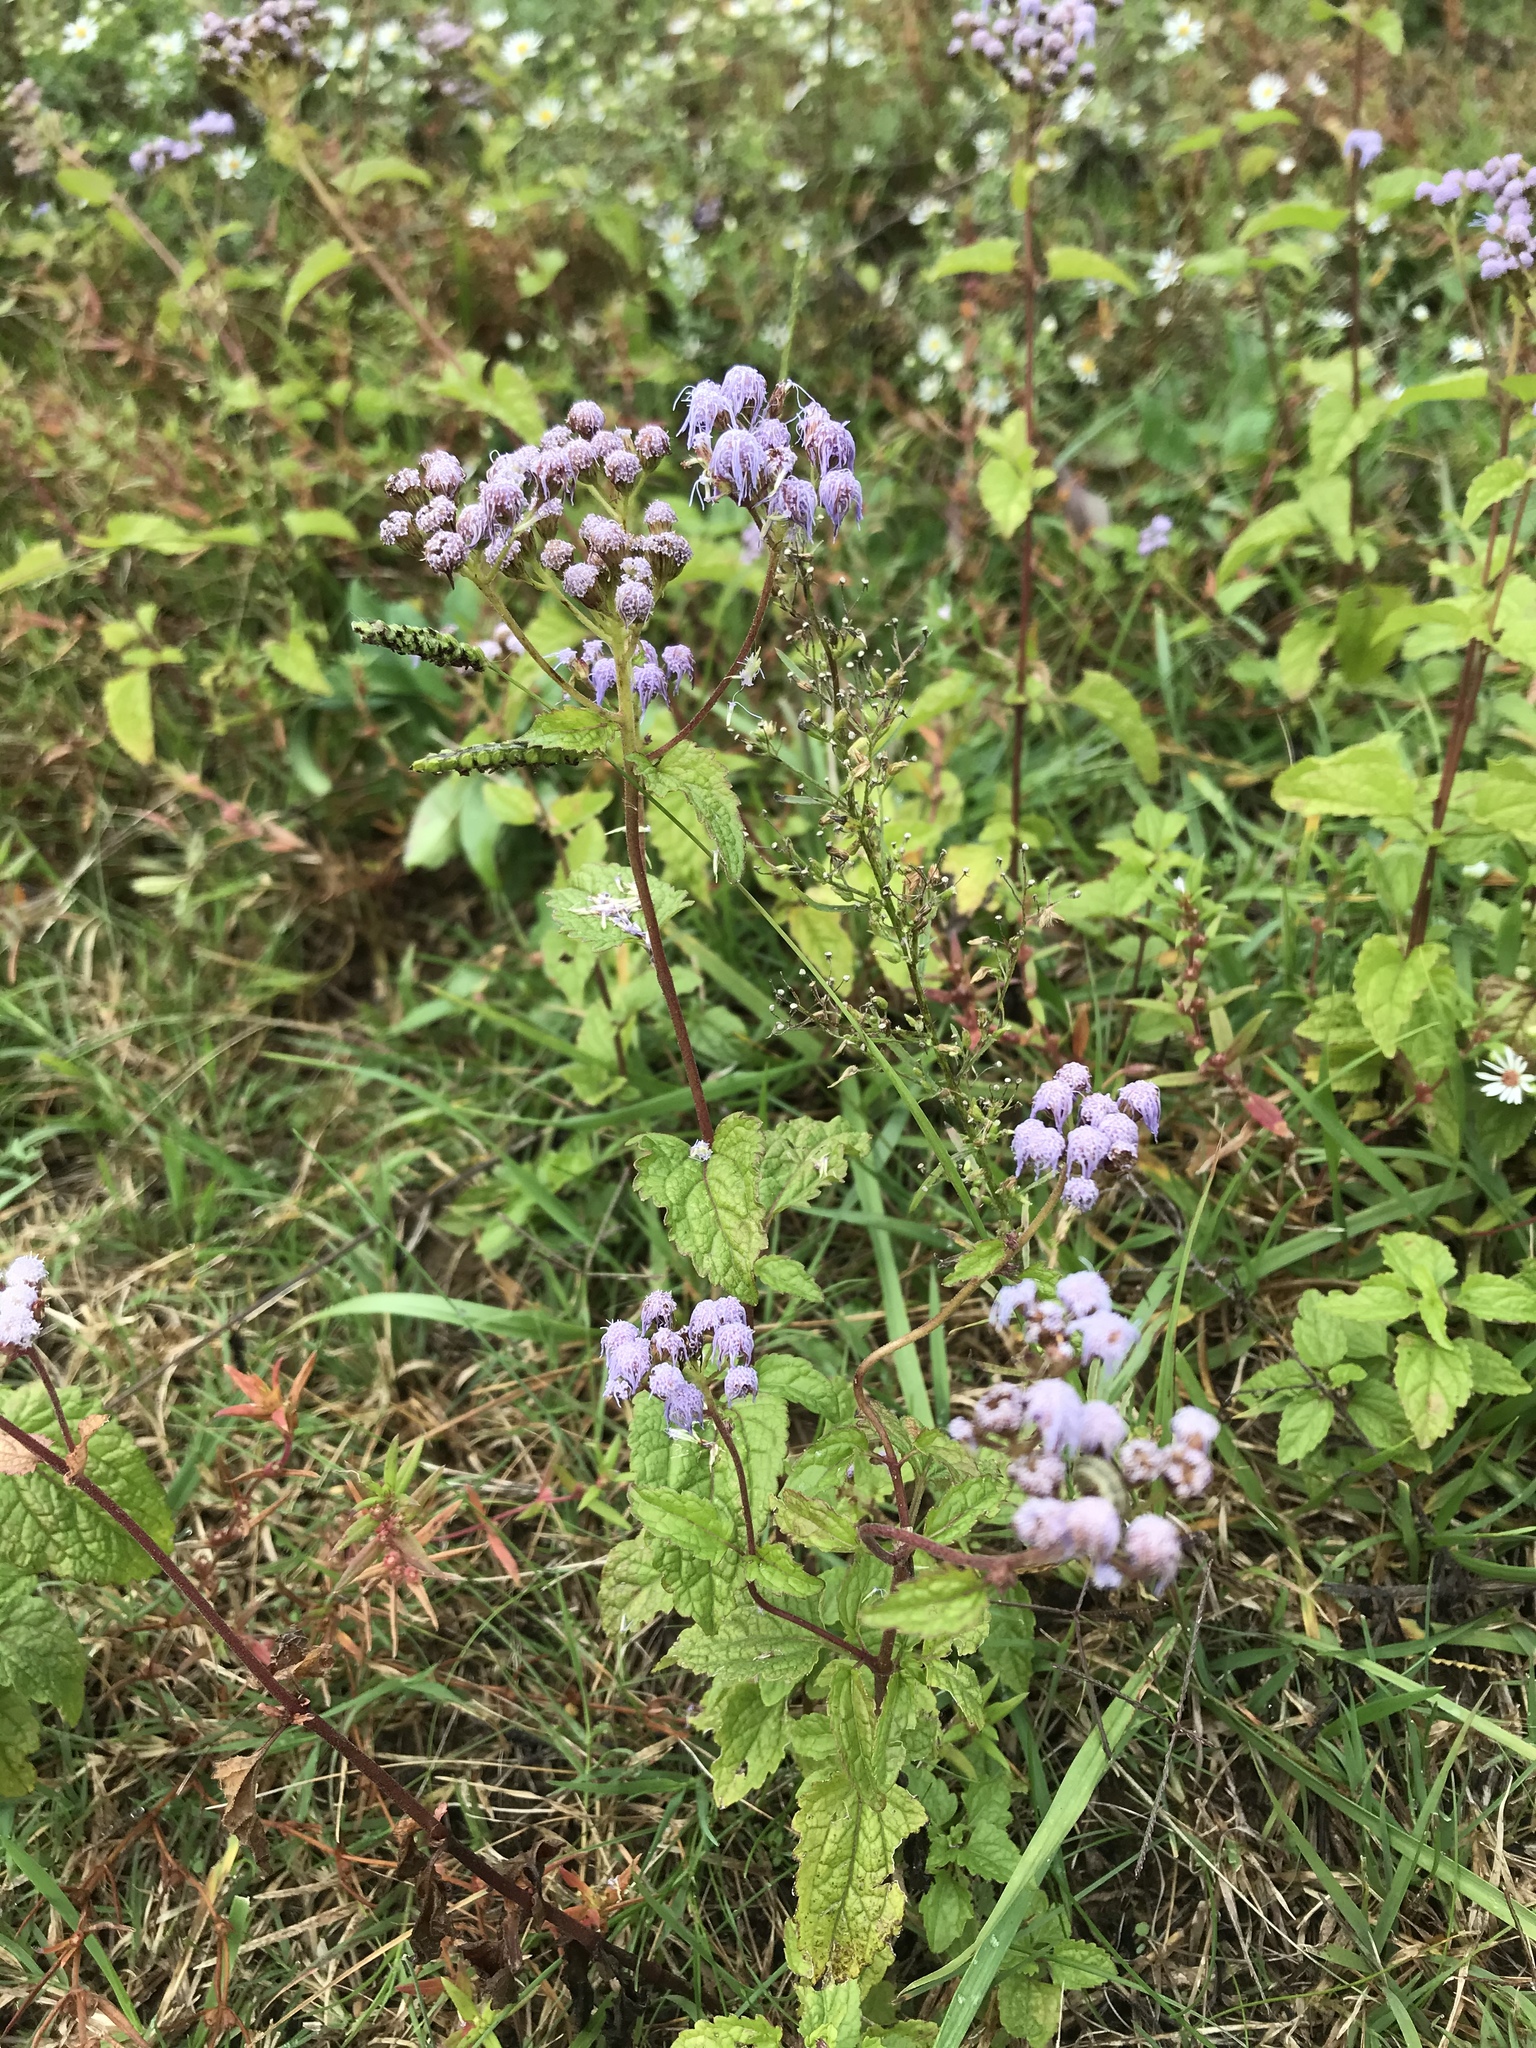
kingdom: Plantae
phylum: Tracheophyta
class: Magnoliopsida
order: Asterales
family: Asteraceae
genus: Conoclinium
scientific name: Conoclinium coelestinum
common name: Blue mistflower
